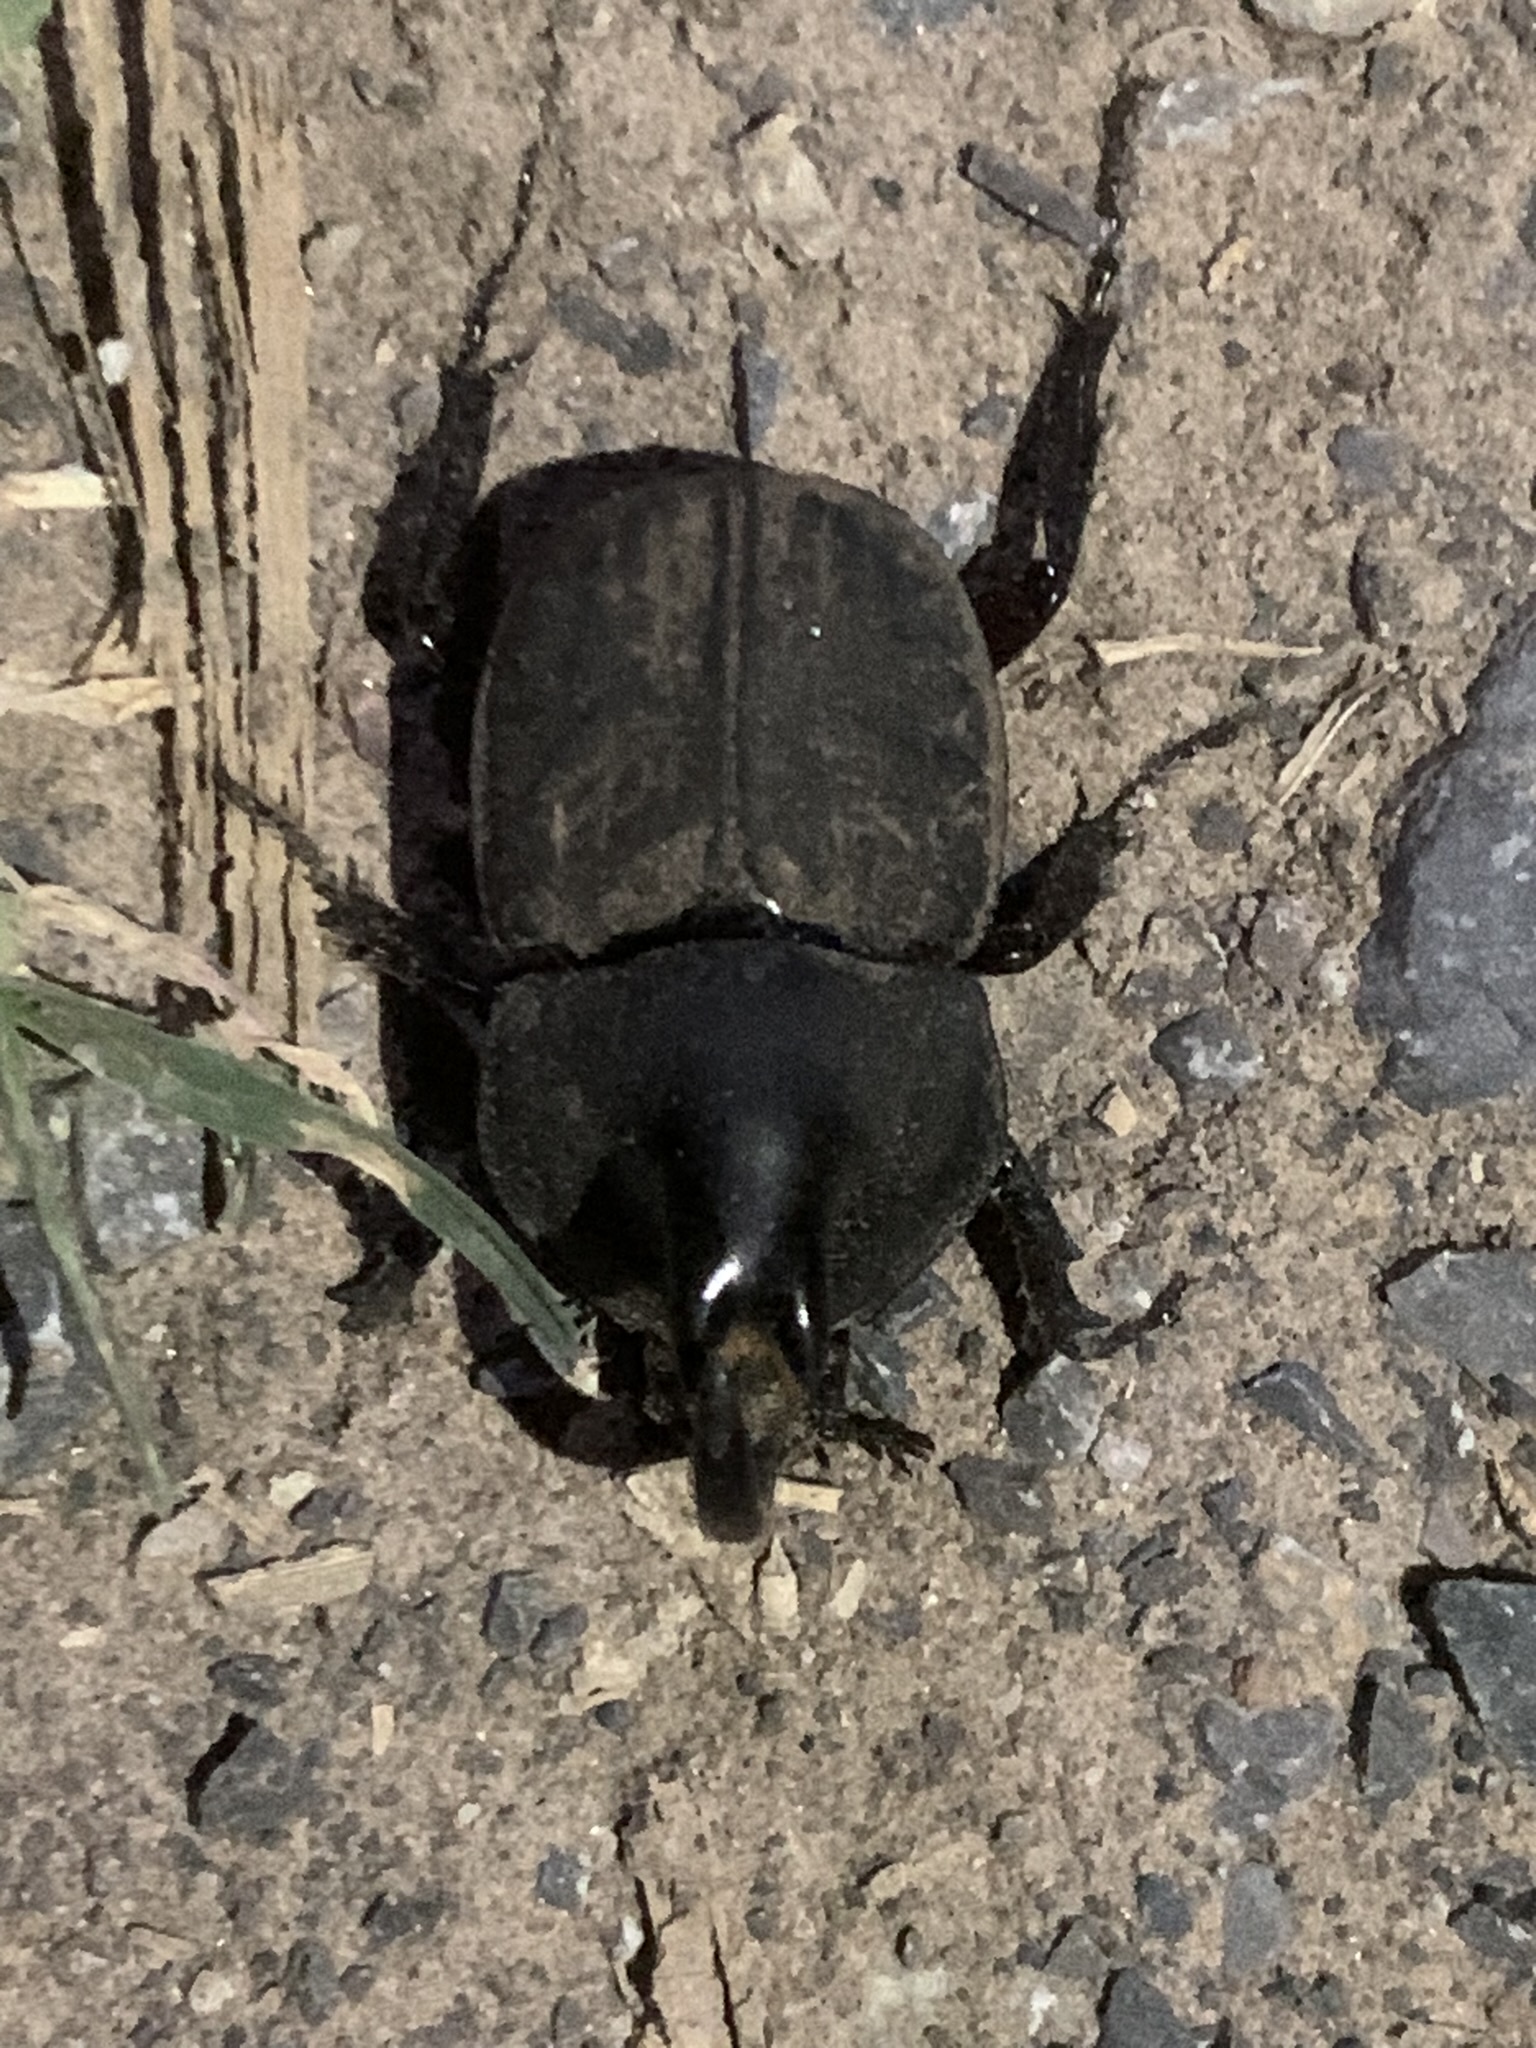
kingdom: Animalia
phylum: Arthropoda
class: Insecta
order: Coleoptera
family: Scarabaeidae
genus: Diloboderus
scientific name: Diloboderus abderus
